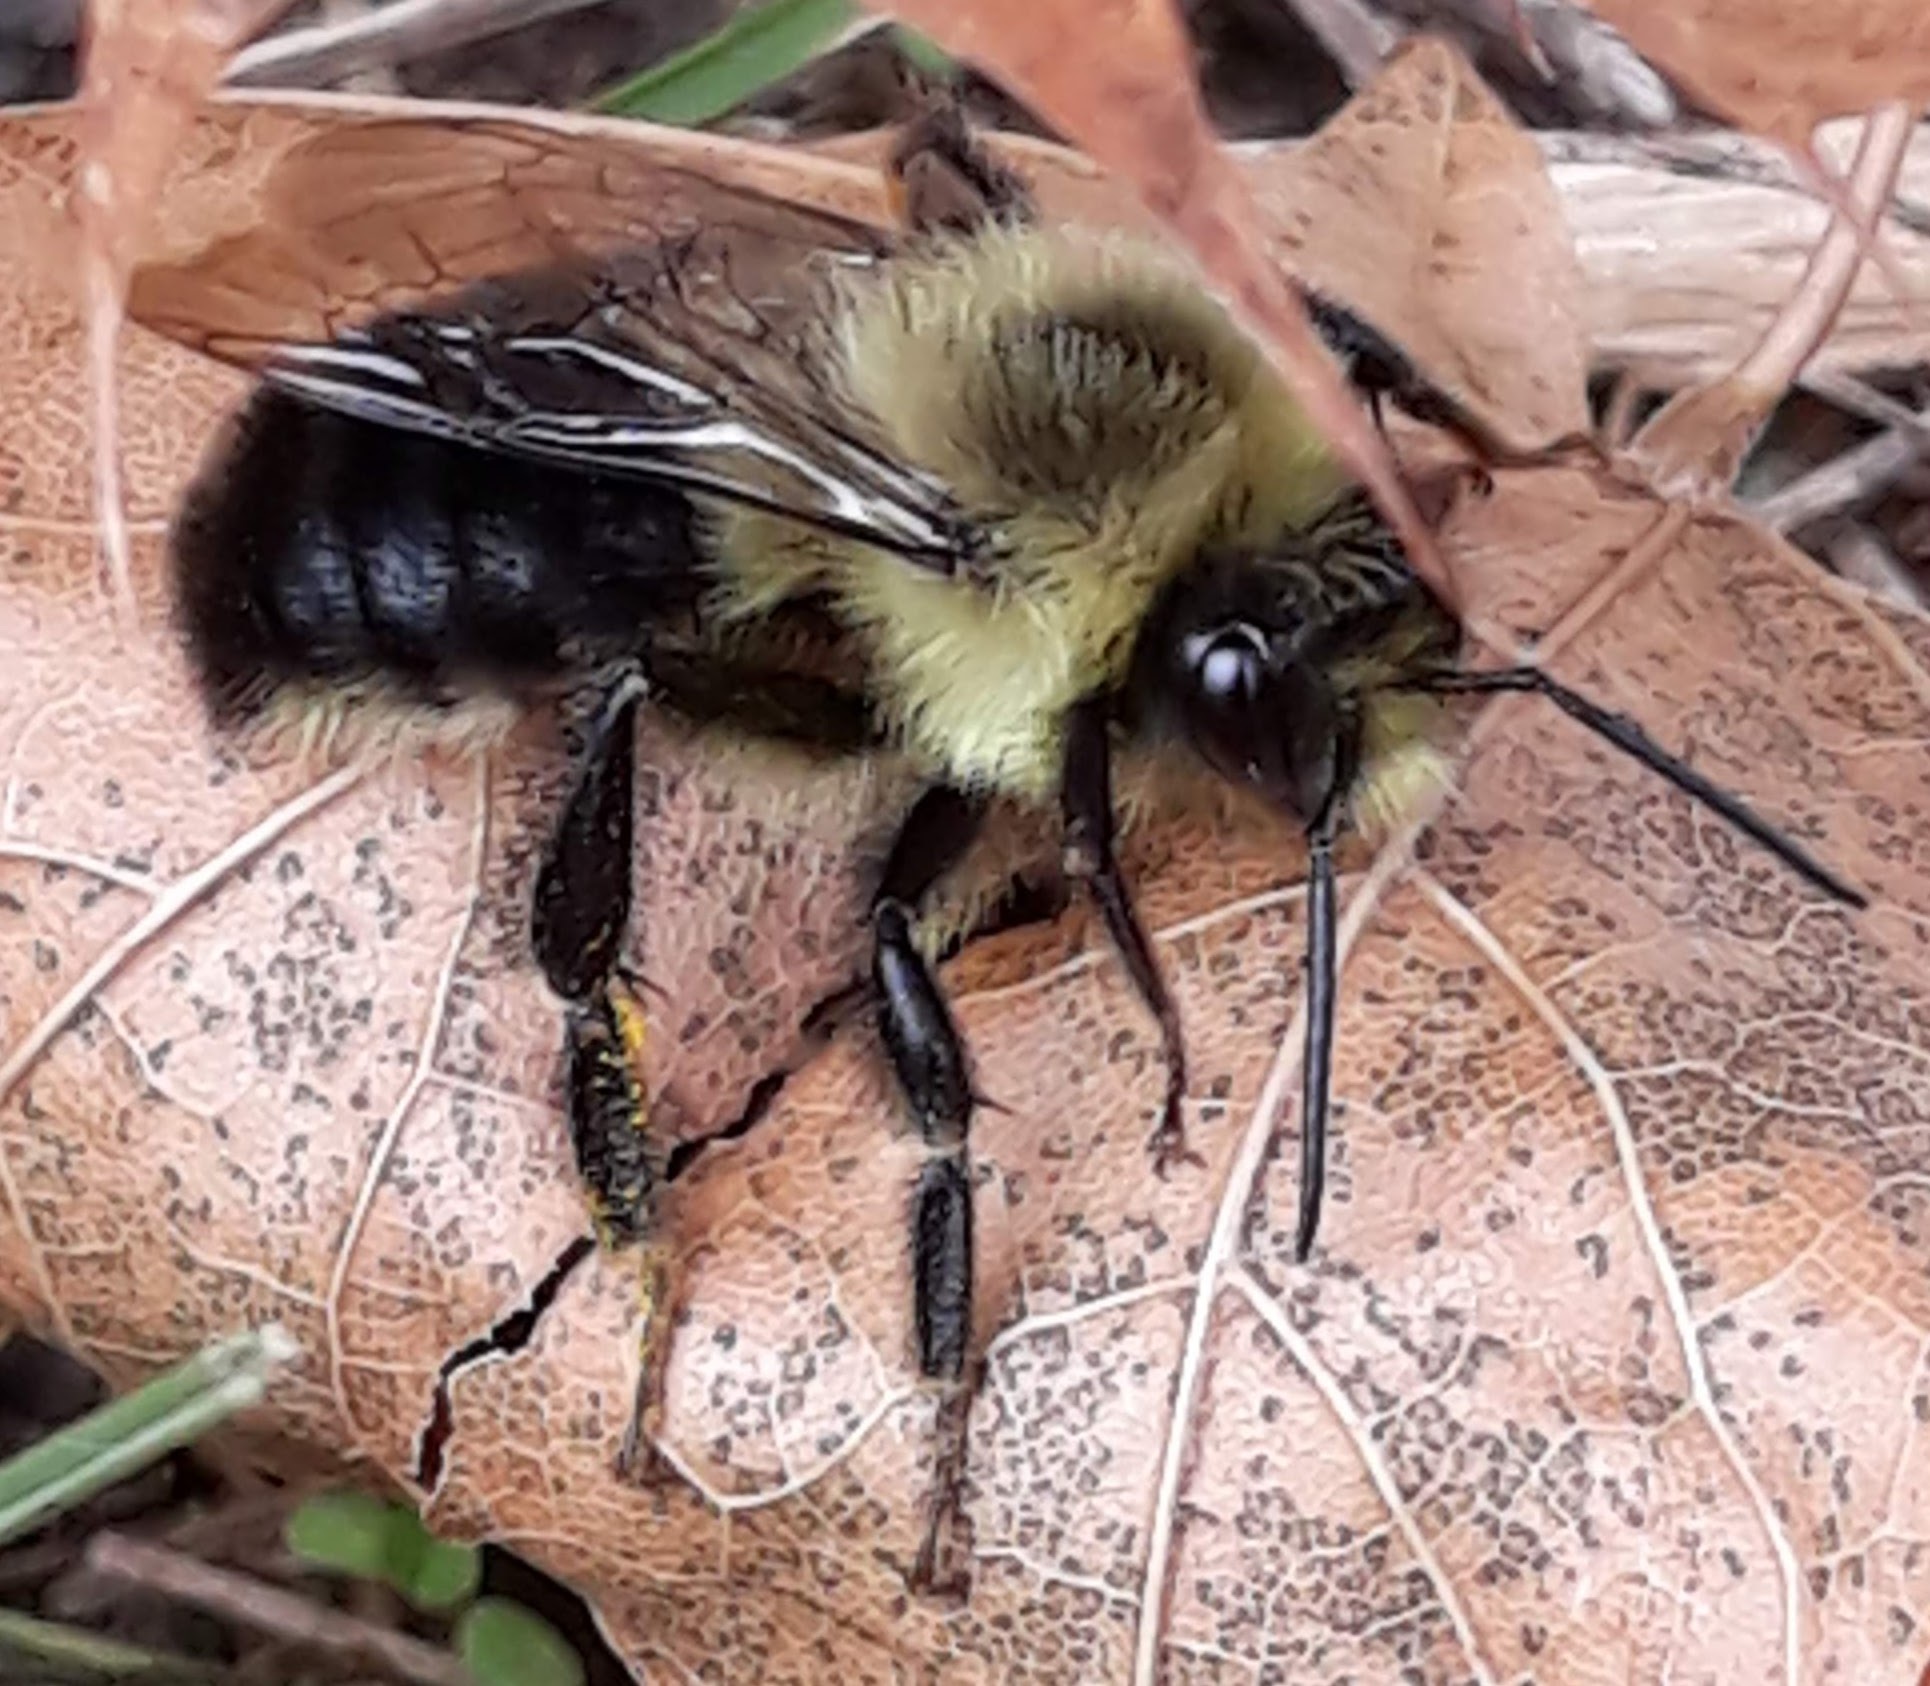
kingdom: Animalia
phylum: Arthropoda
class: Insecta
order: Hymenoptera
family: Apidae
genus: Bombus
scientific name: Bombus impatiens
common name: Common eastern bumble bee
